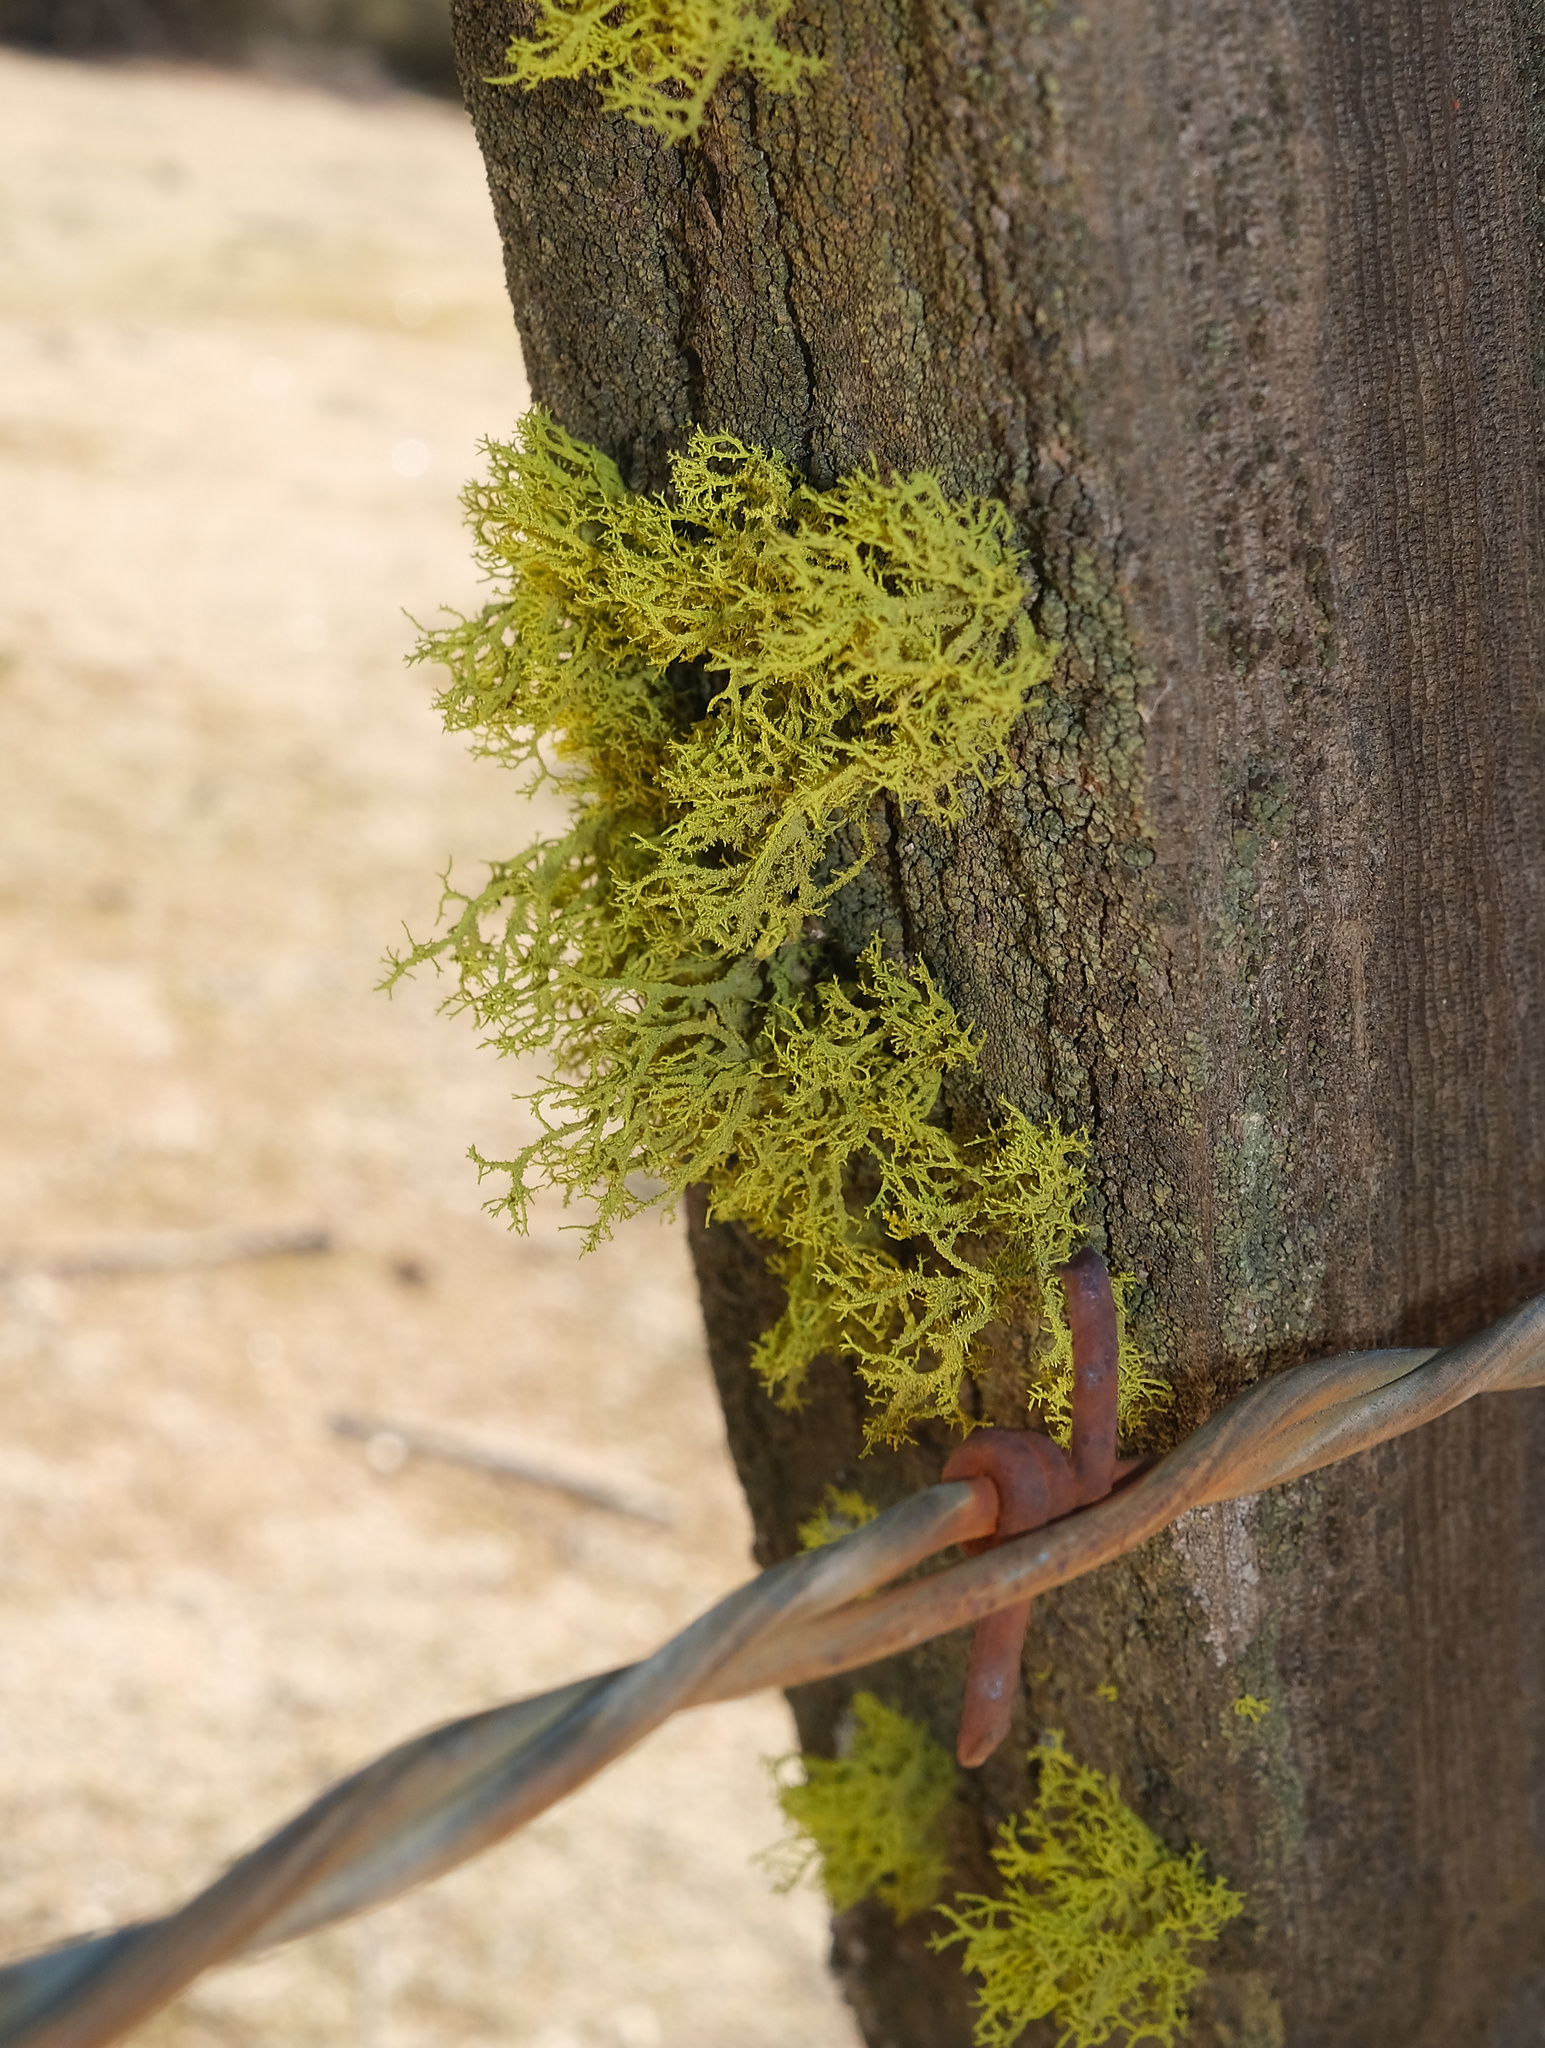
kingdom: Fungi
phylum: Ascomycota
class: Lecanoromycetes
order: Lecanorales
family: Parmeliaceae
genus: Letharia
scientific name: Letharia vulpina
